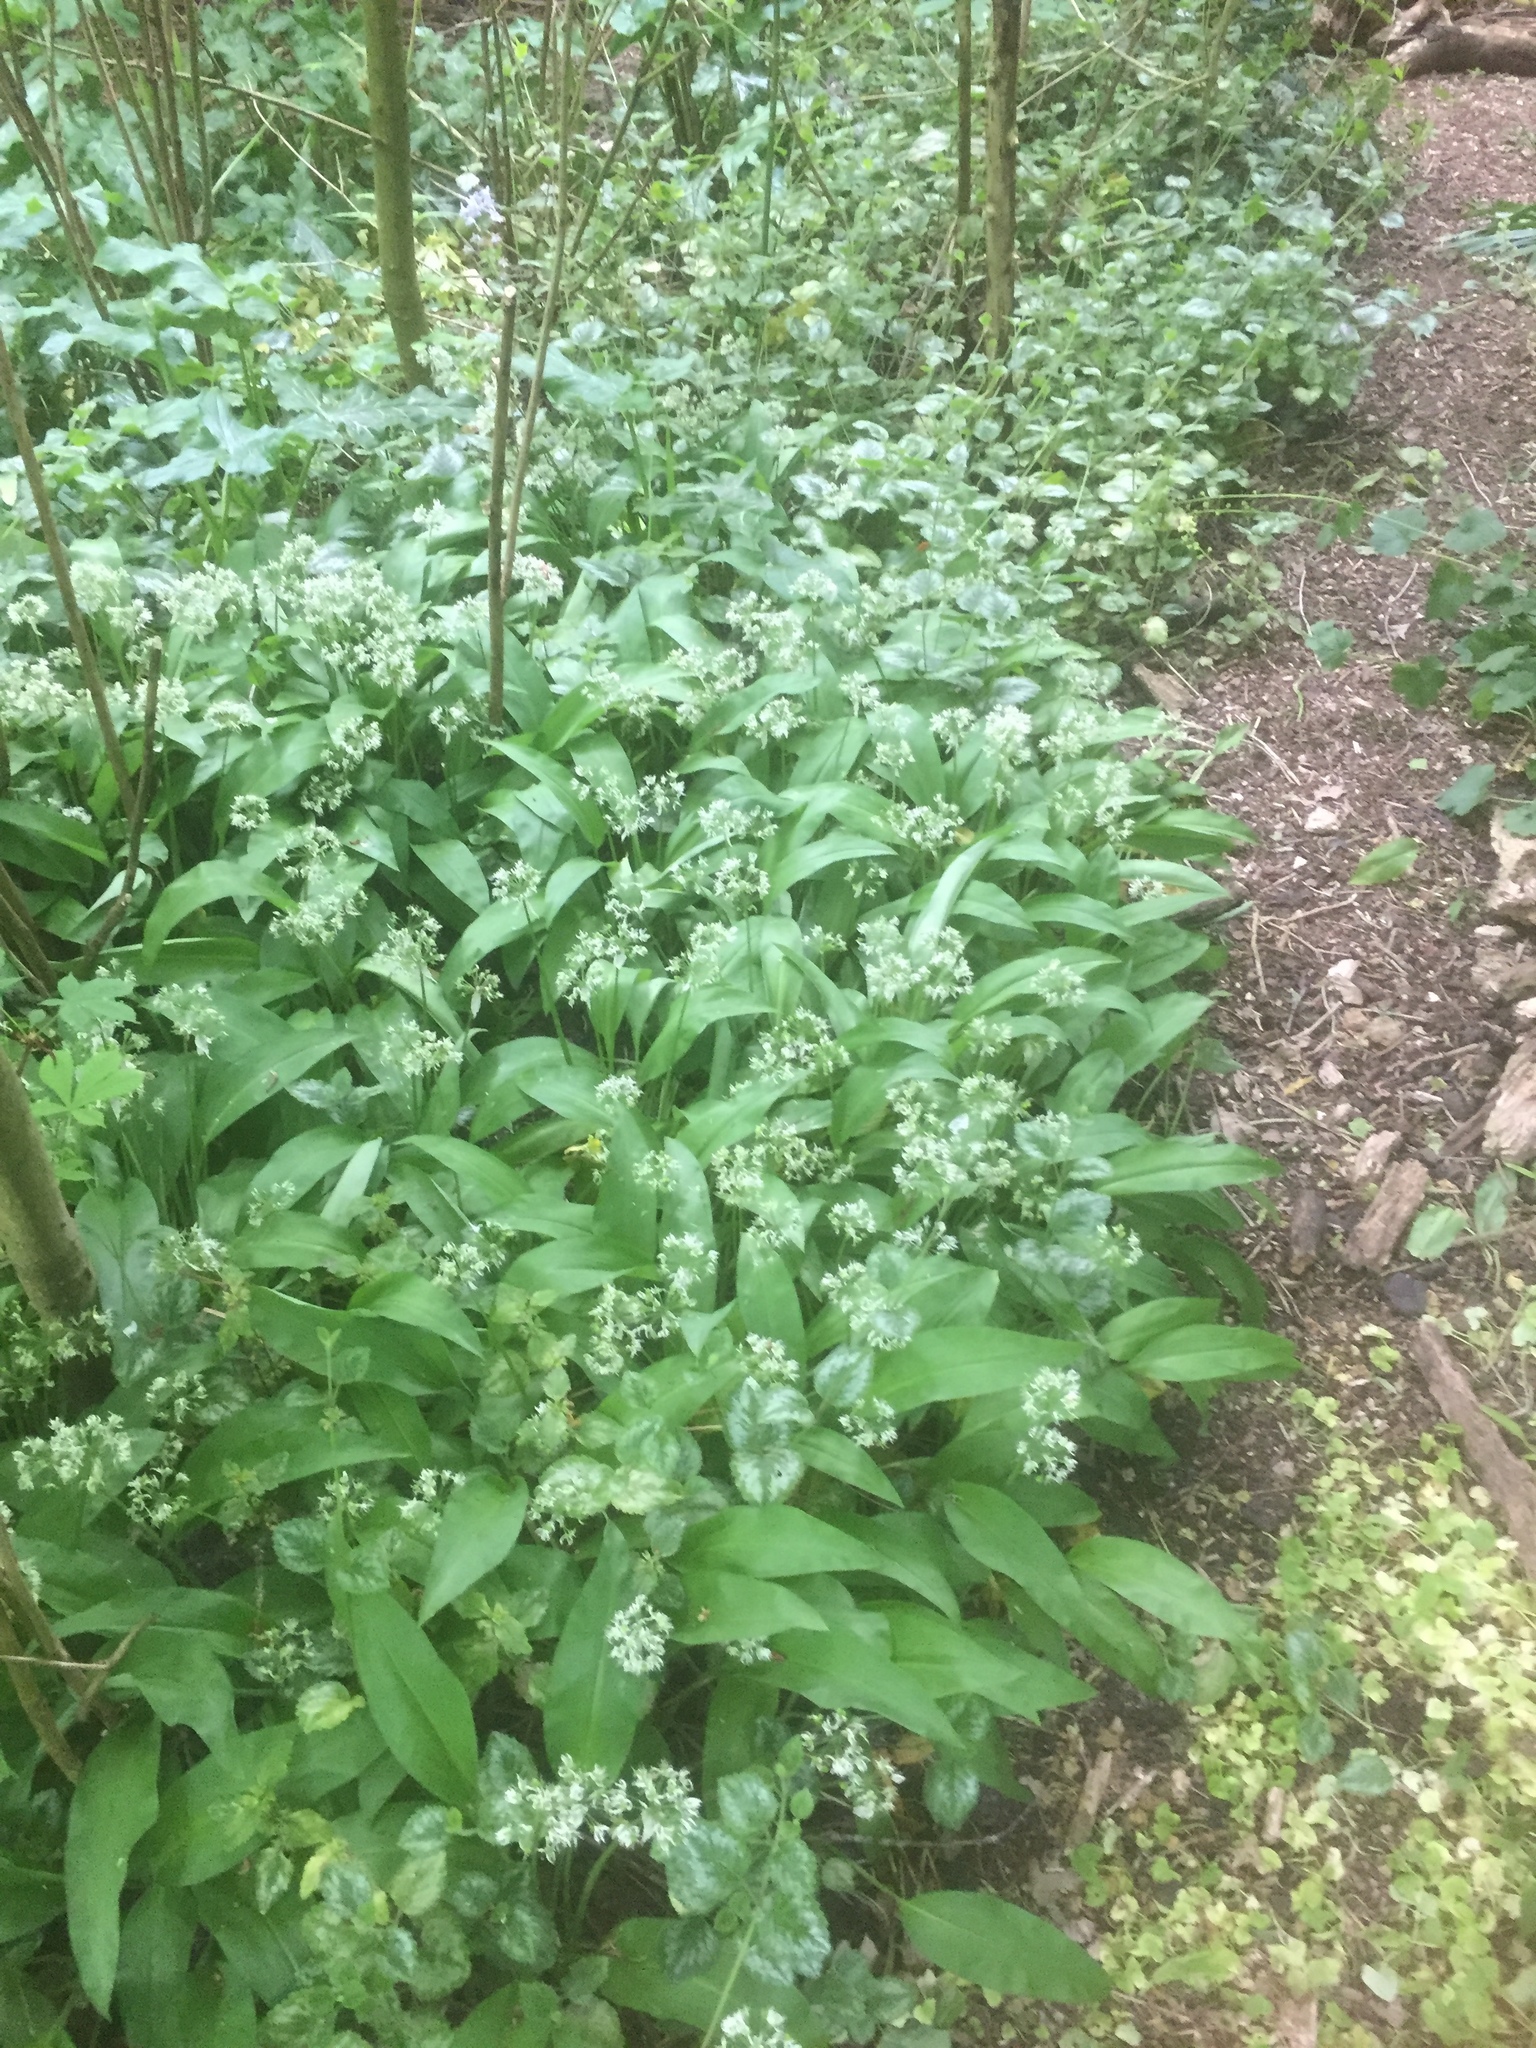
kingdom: Plantae
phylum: Tracheophyta
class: Liliopsida
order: Asparagales
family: Amaryllidaceae
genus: Allium
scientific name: Allium ursinum
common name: Ramsons
